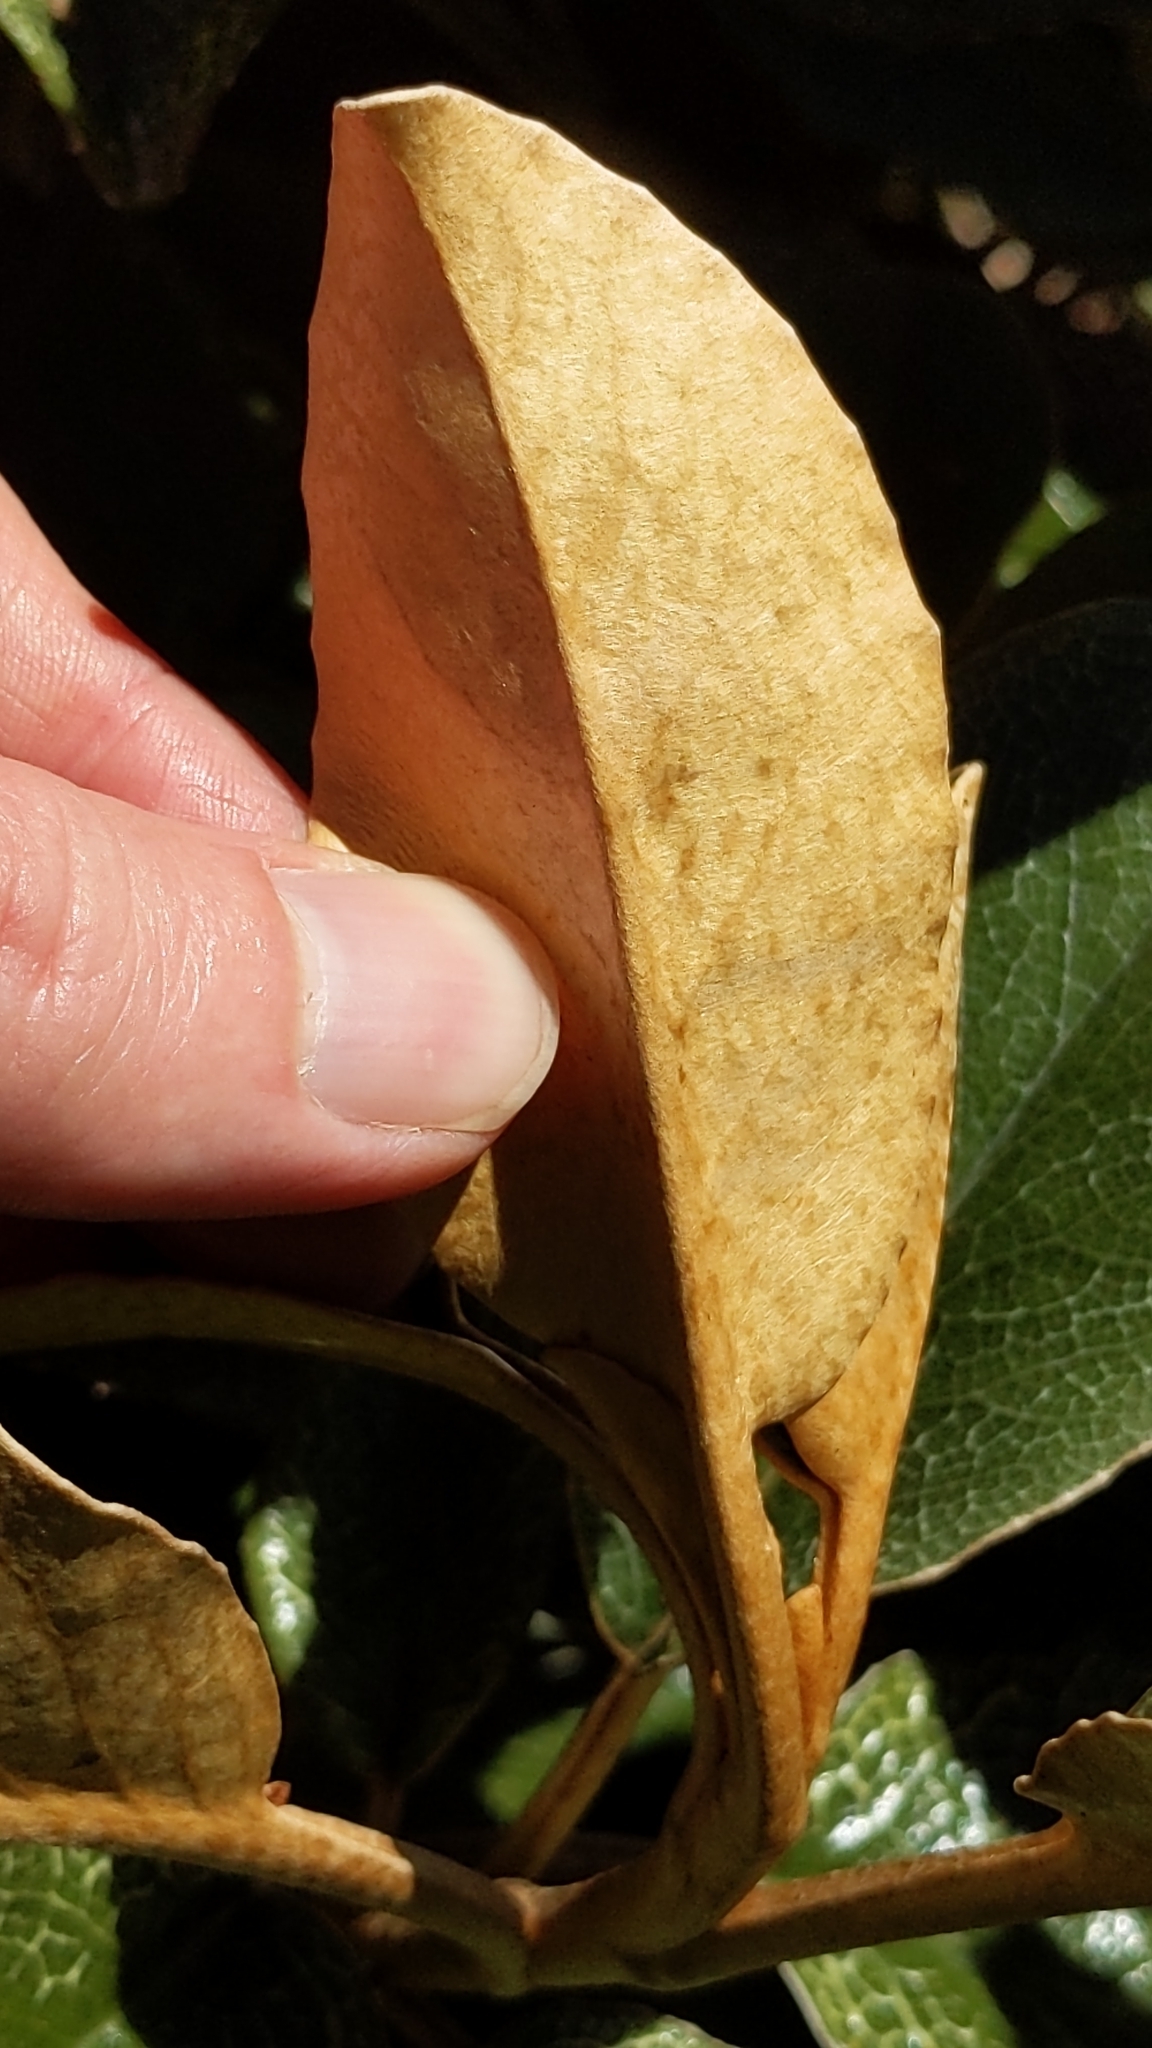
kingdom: Plantae
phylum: Tracheophyta
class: Magnoliopsida
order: Asterales
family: Asteraceae
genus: Brachyglottis
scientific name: Brachyglottis elaeagnifolia
